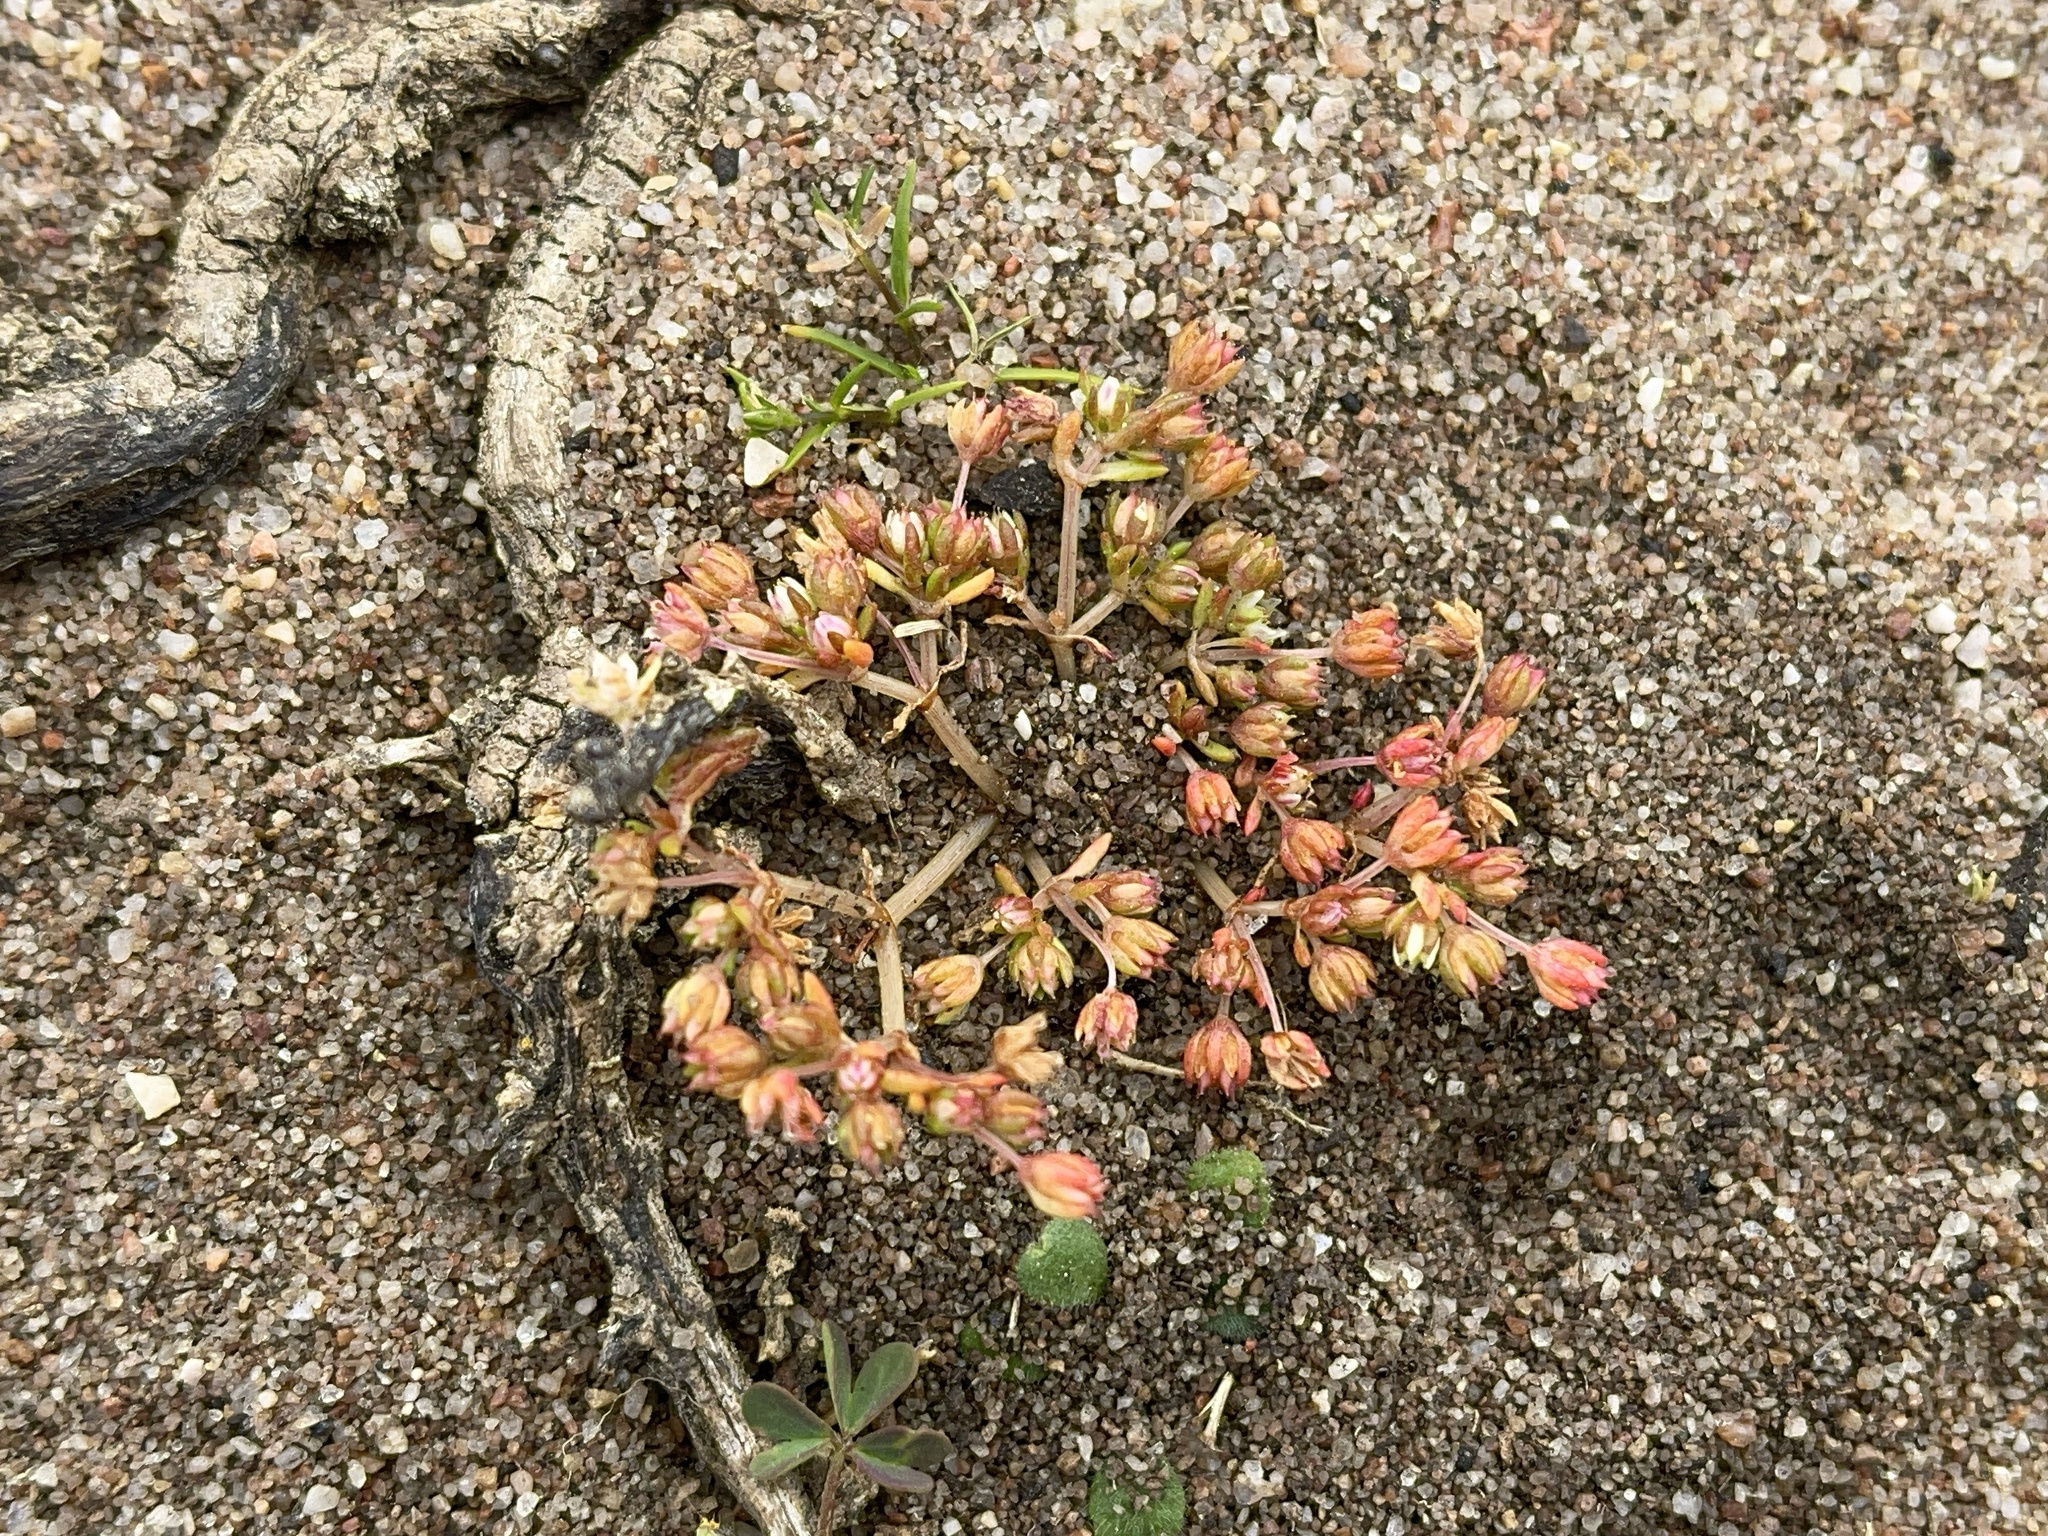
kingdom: Plantae
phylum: Tracheophyta
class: Magnoliopsida
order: Saxifragales
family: Crassulaceae
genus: Crassula
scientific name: Crassula decumbens
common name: Scilly pigmyweed
